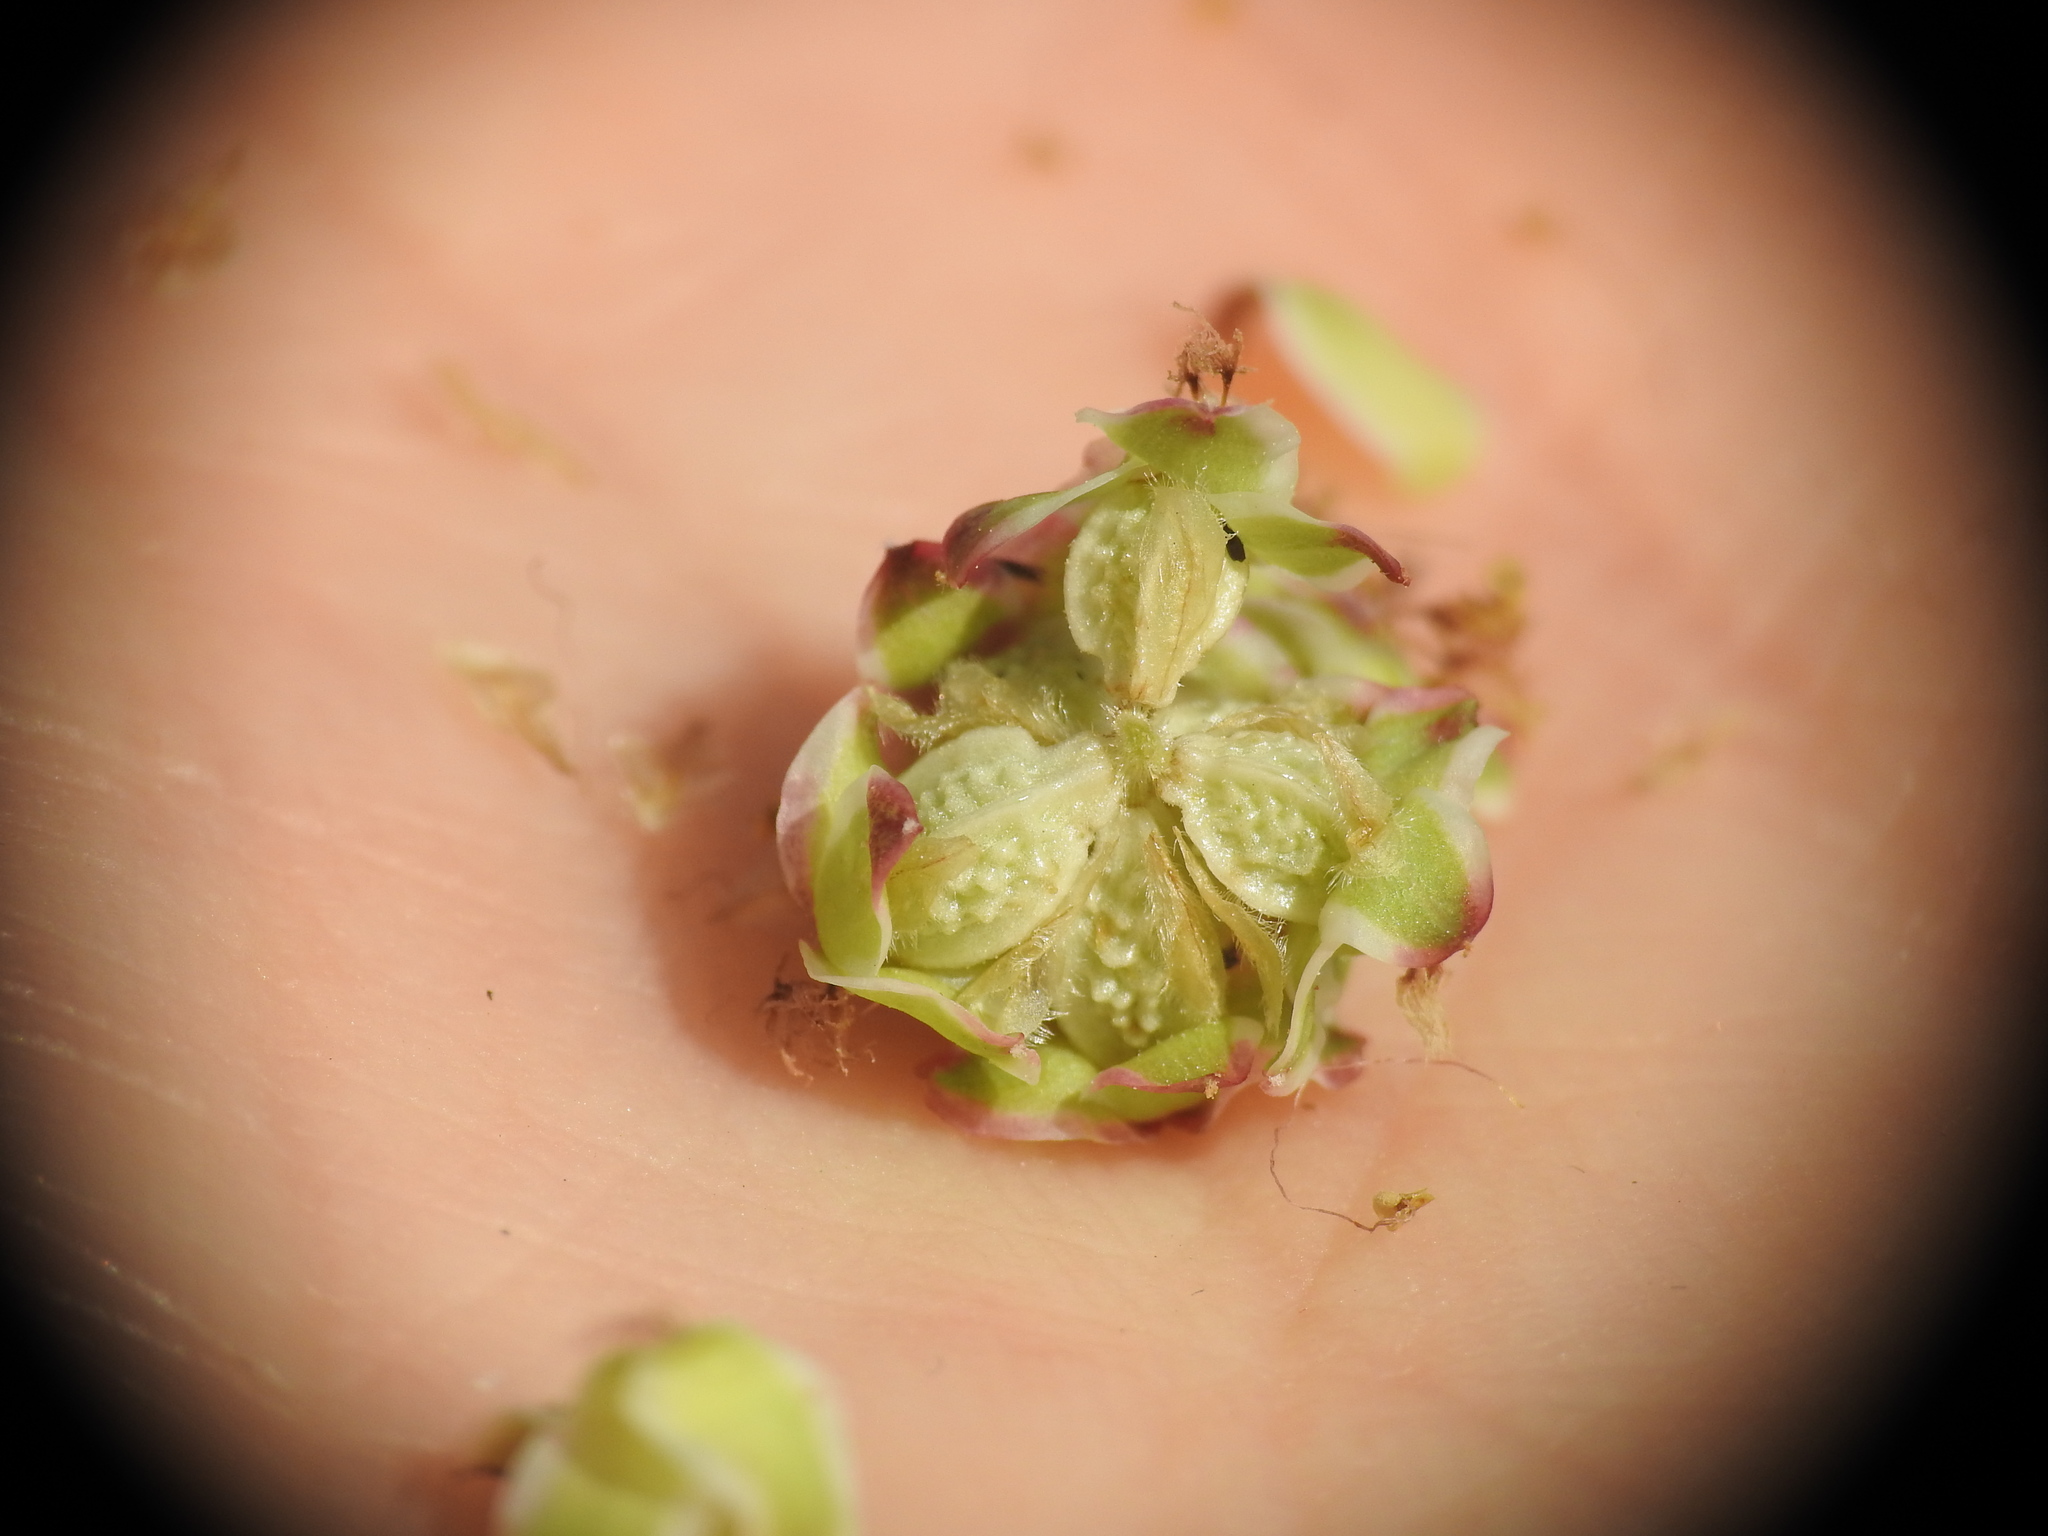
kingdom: Plantae
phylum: Tracheophyta
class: Magnoliopsida
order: Rosales
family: Rosaceae
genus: Poterium
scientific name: Poterium sanguisorba
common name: Salad burnet
